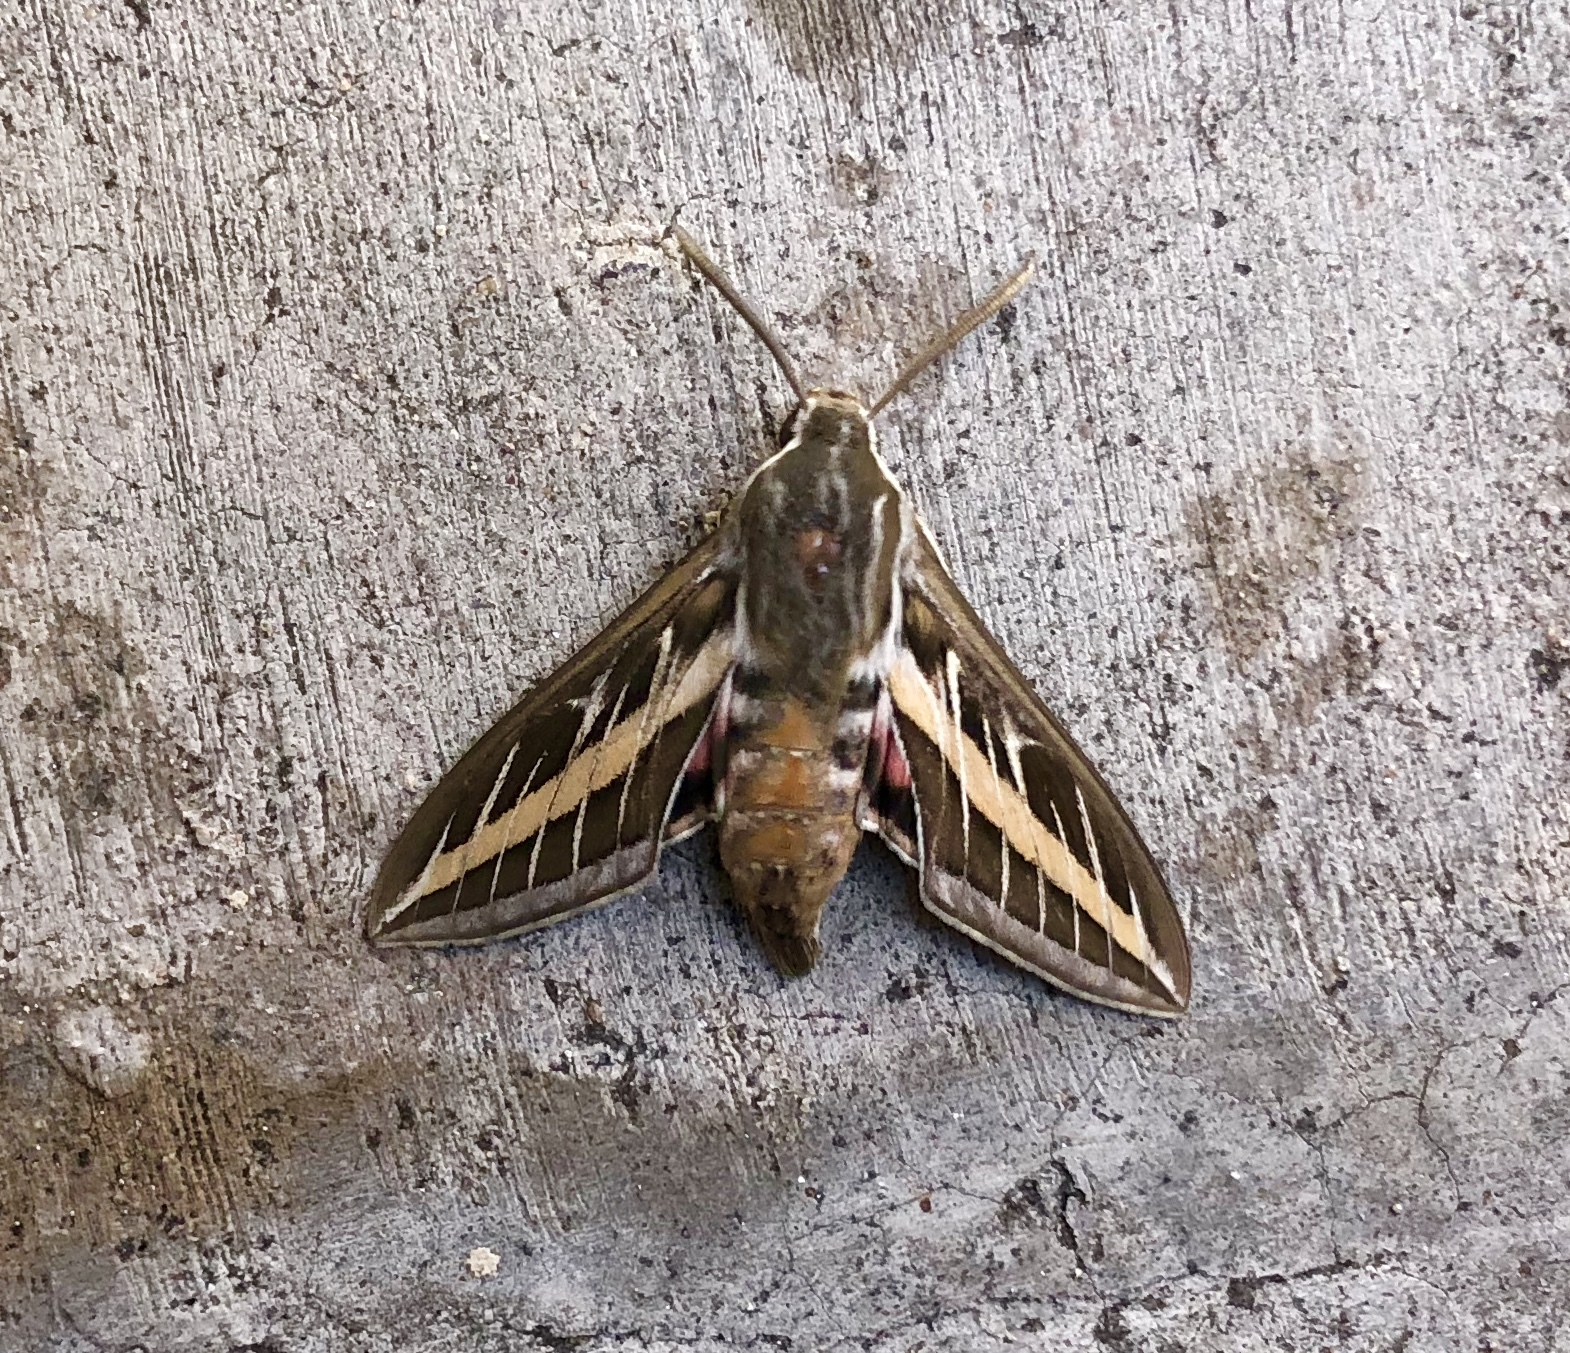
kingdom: Animalia
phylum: Arthropoda
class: Insecta
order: Lepidoptera
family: Sphingidae
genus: Hyles
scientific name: Hyles lineata
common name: White-lined sphinx
